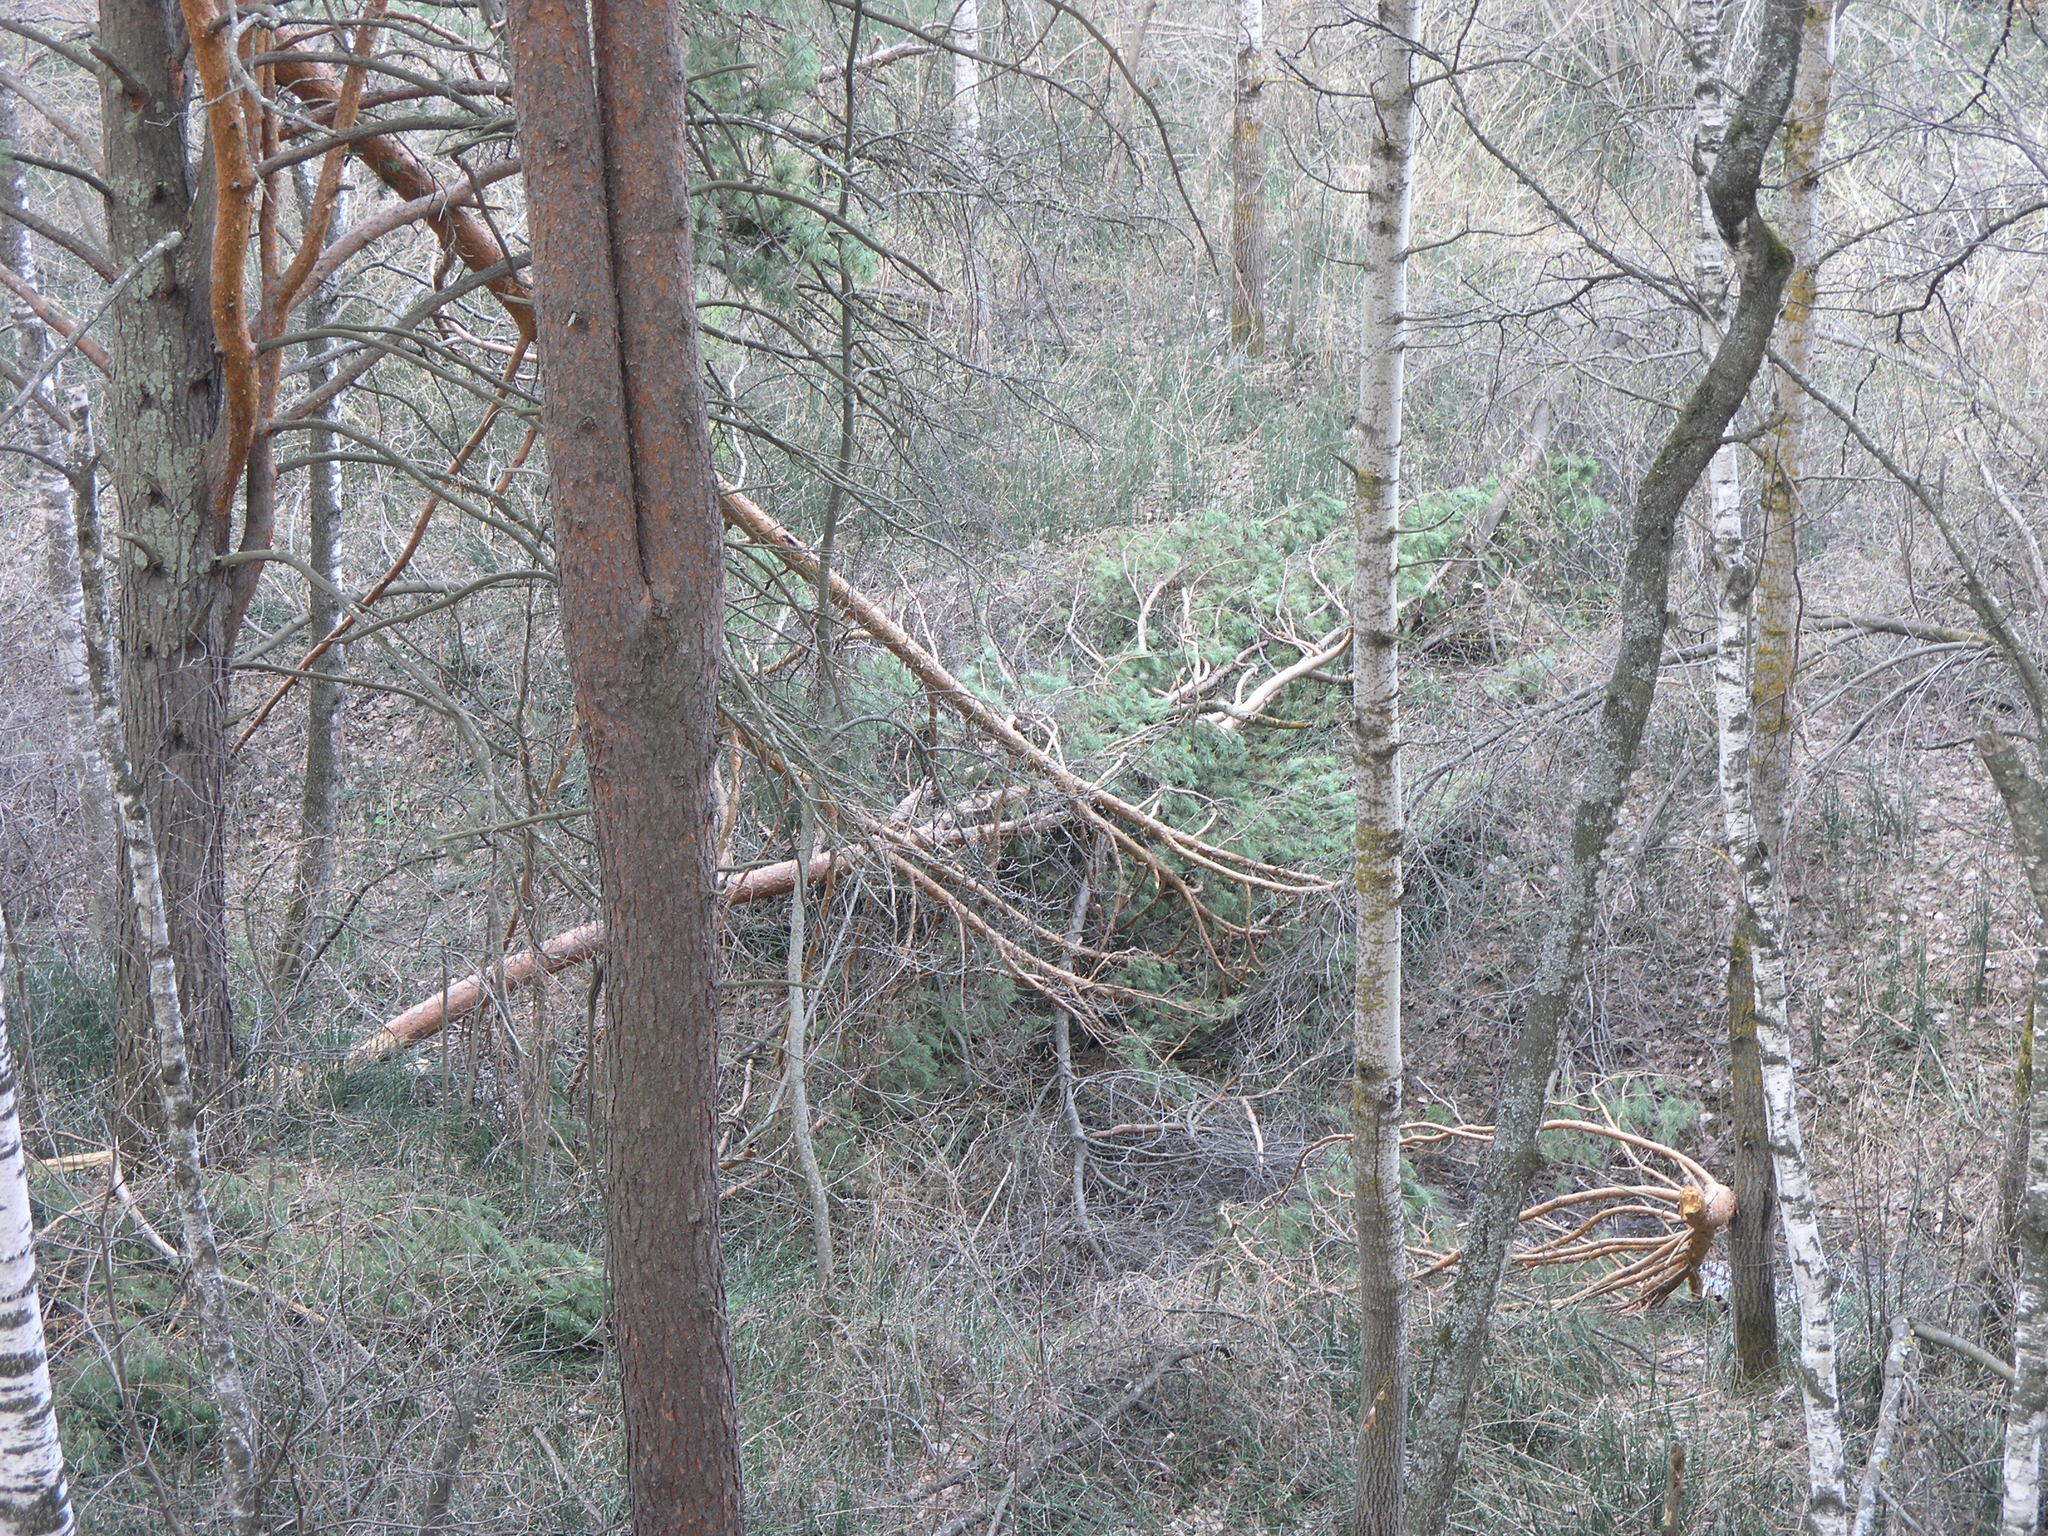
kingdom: Plantae
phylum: Tracheophyta
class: Magnoliopsida
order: Fagales
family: Betulaceae
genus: Betula
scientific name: Betula pendula
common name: Silver birch
